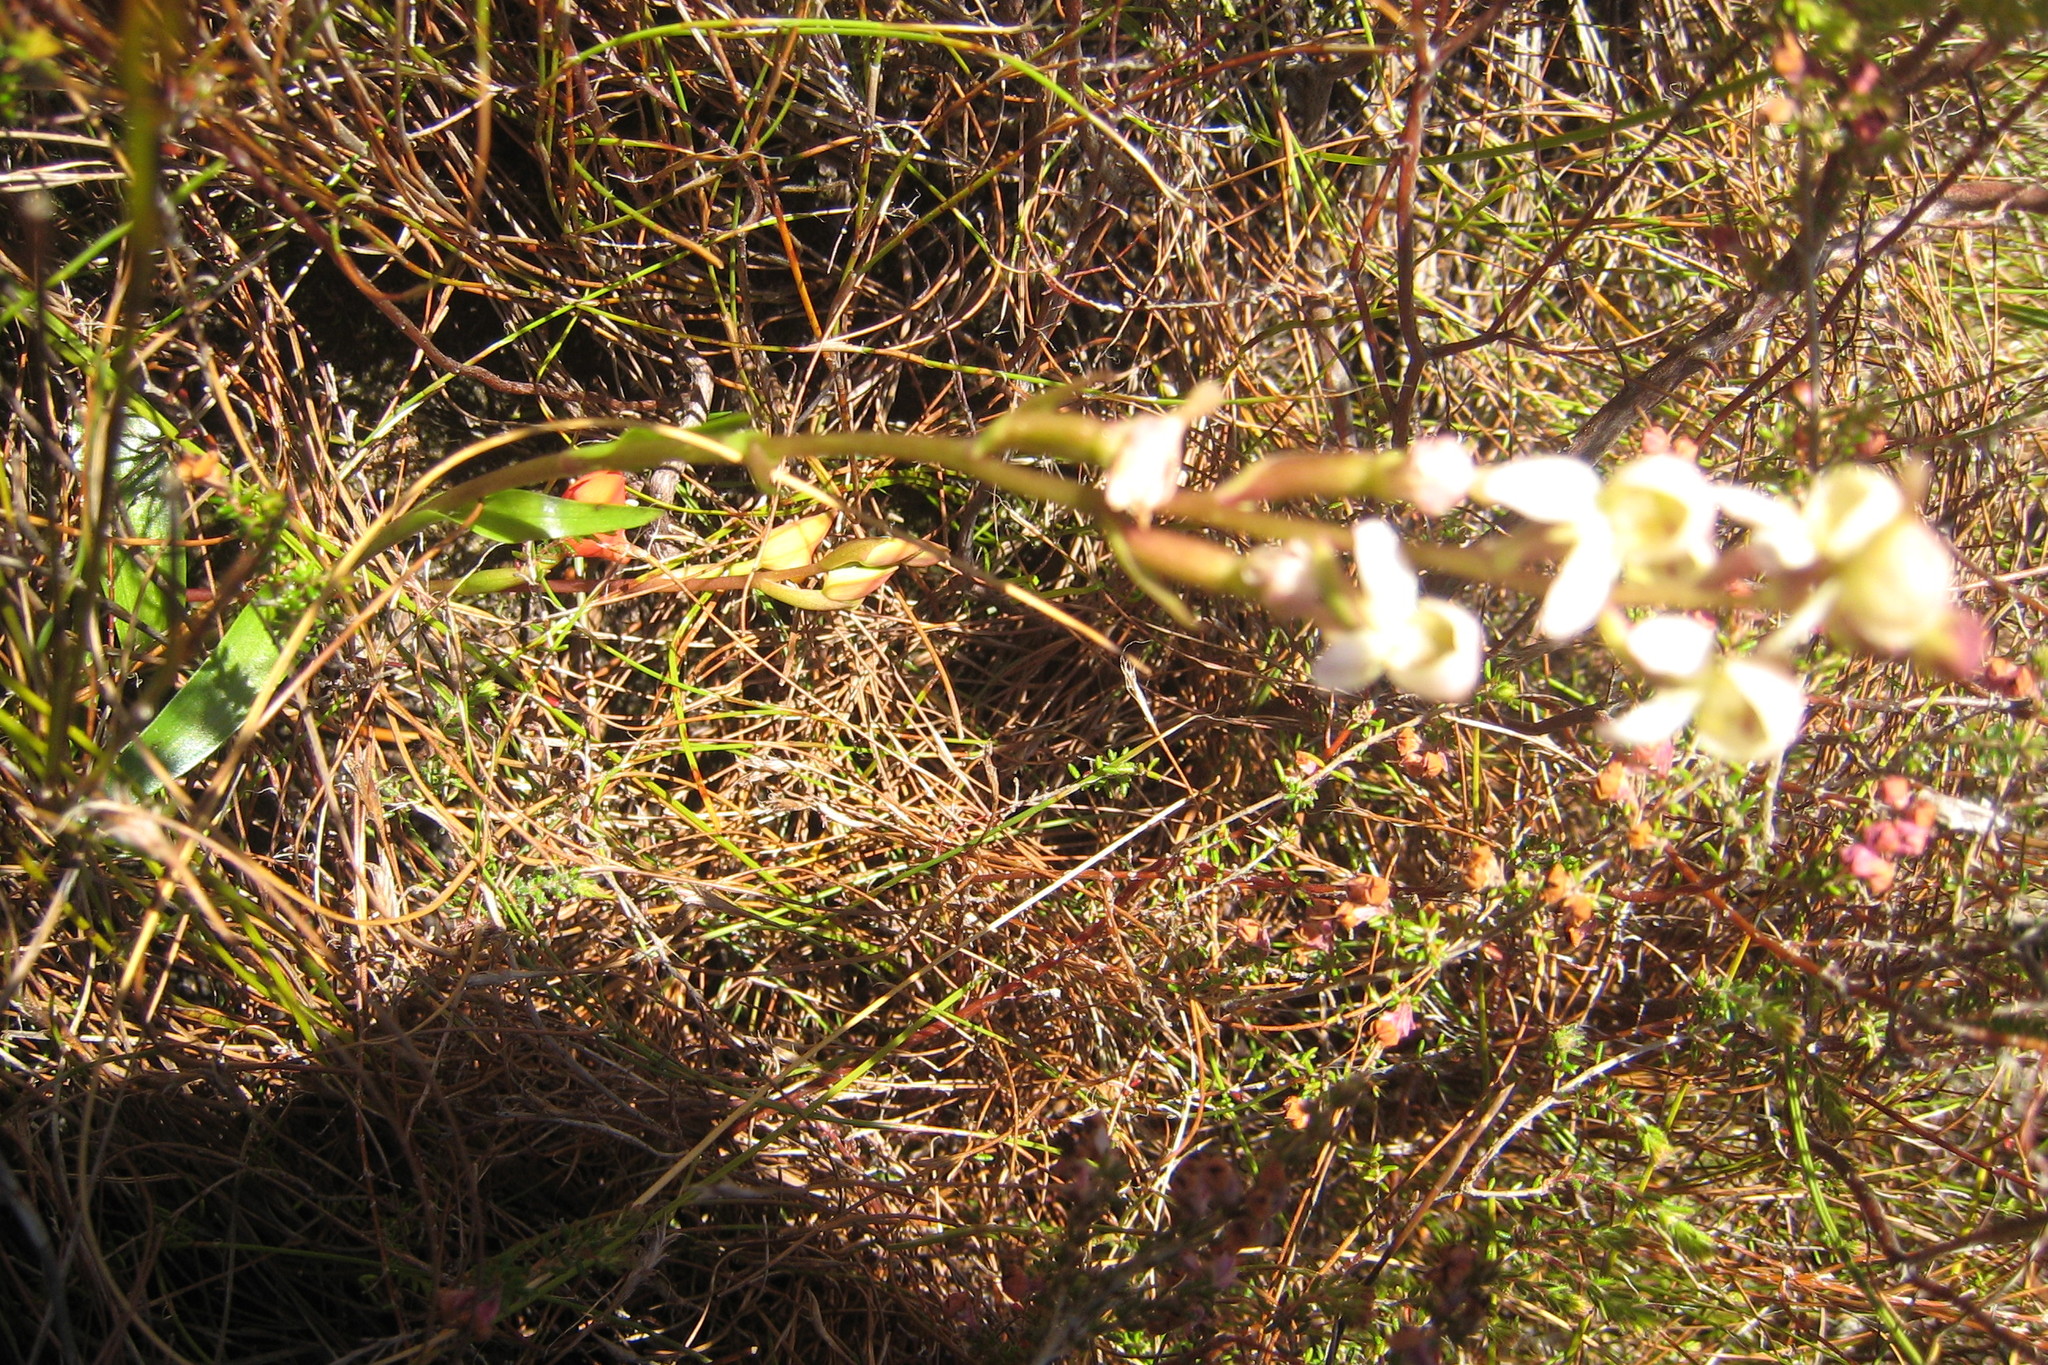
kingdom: Plantae
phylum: Tracheophyta
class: Liliopsida
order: Asparagales
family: Orchidaceae
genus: Disa
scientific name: Disa uncinata
